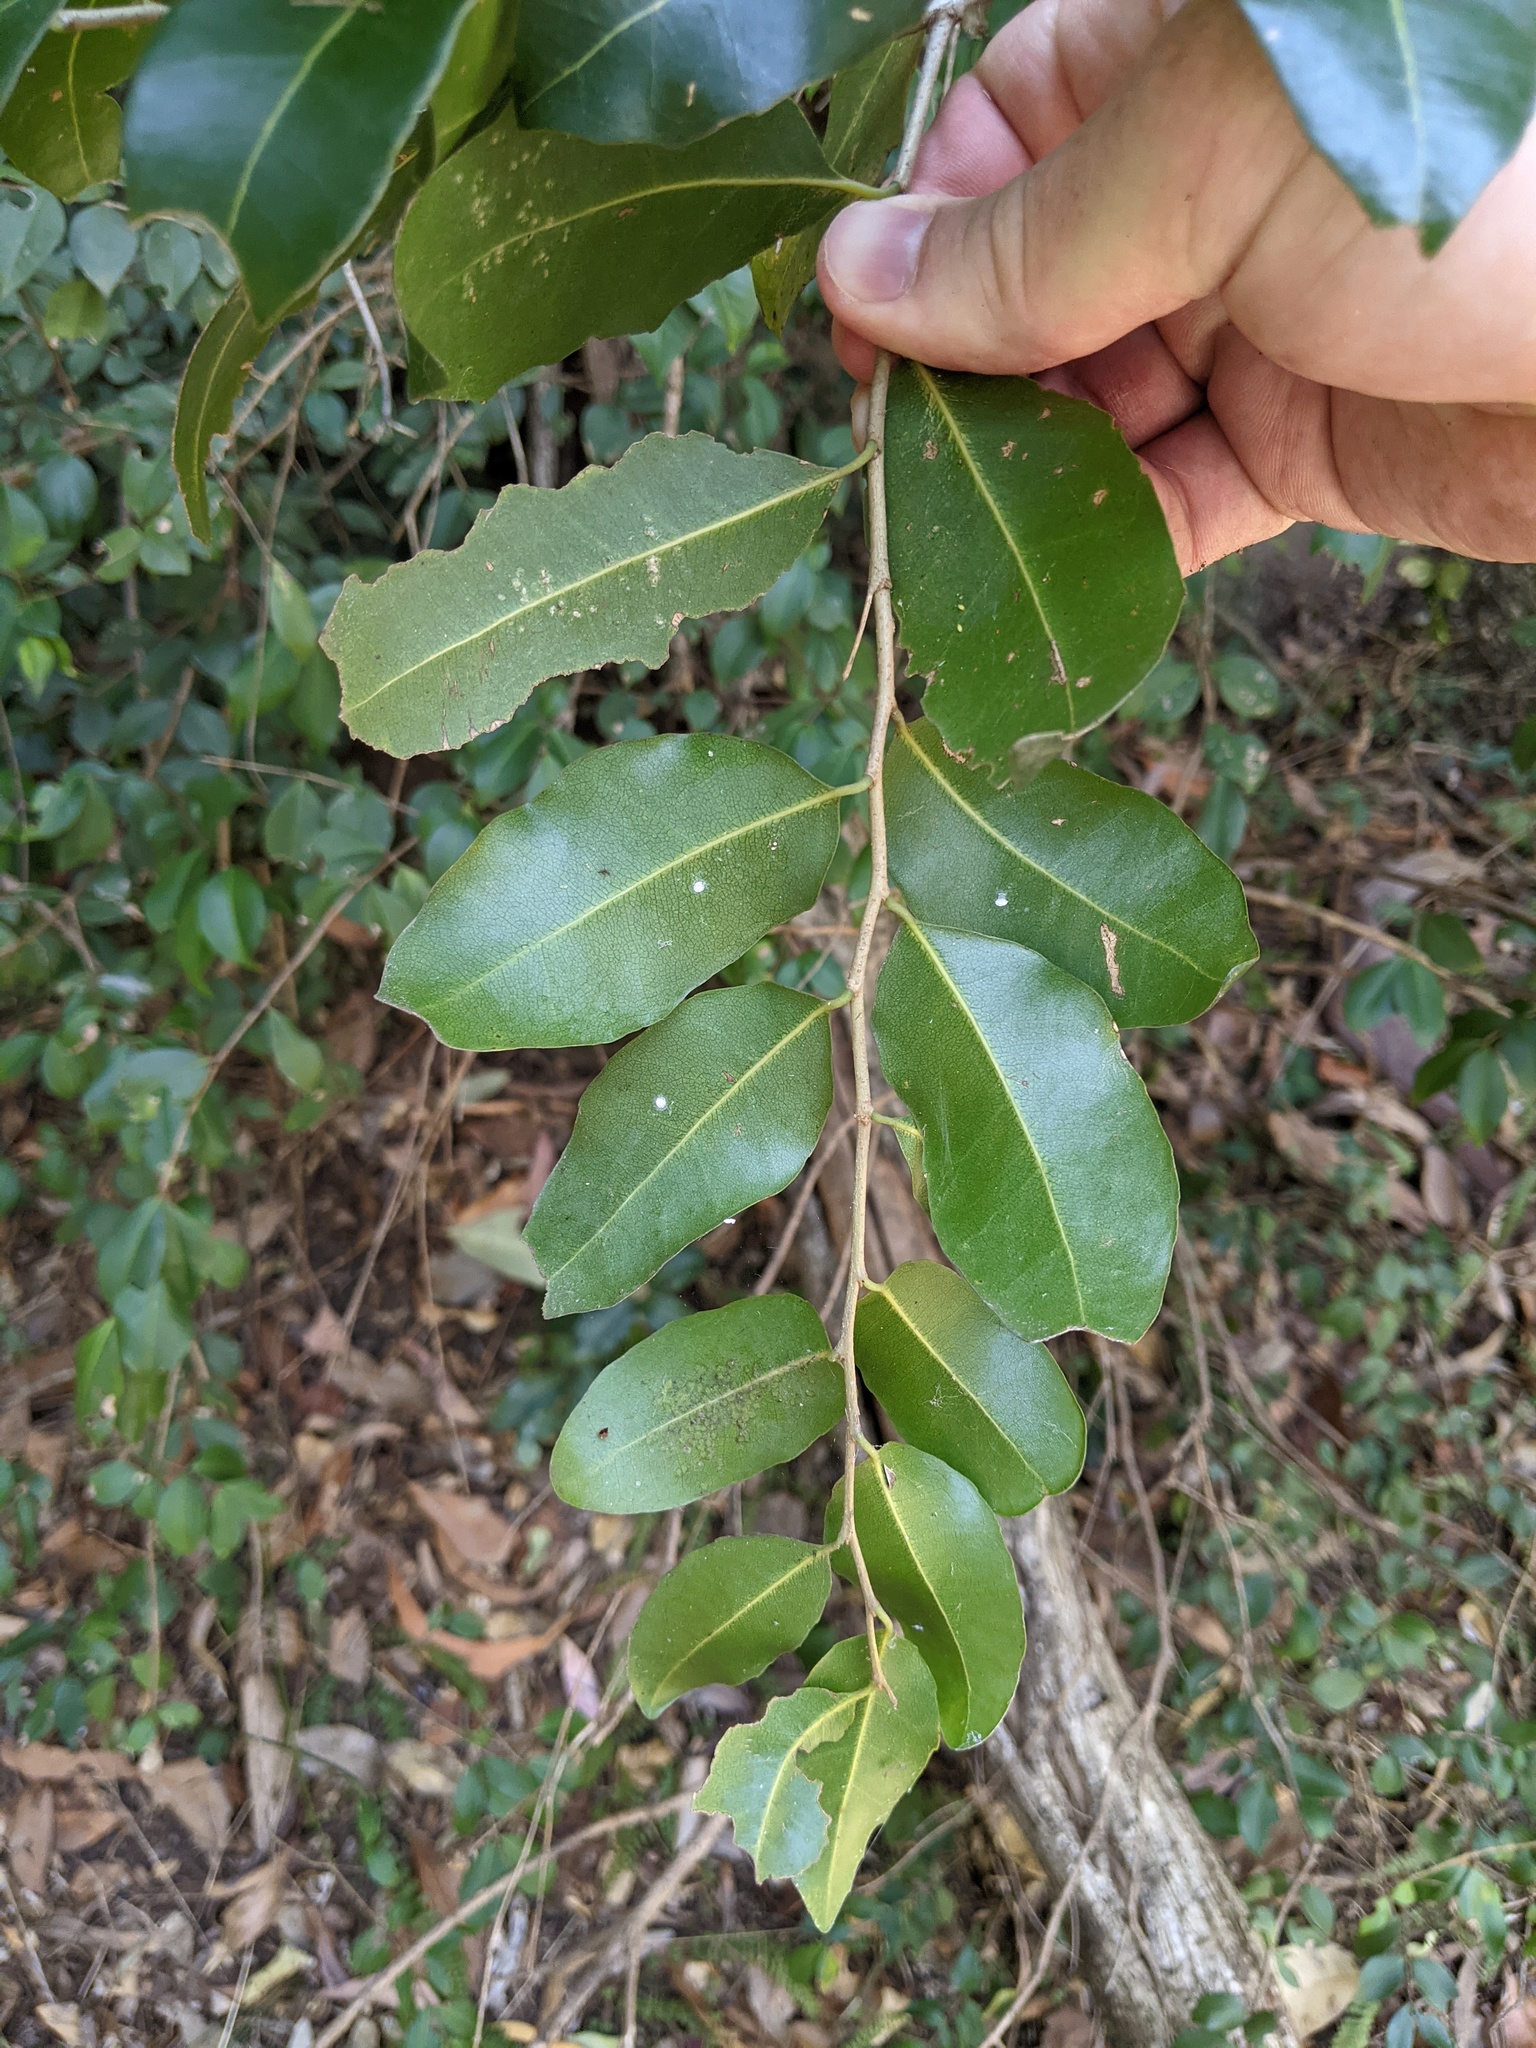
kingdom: Plantae
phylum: Tracheophyta
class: Magnoliopsida
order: Ericales
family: Ebenaceae
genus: Diospyros
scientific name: Diospyros geminata
